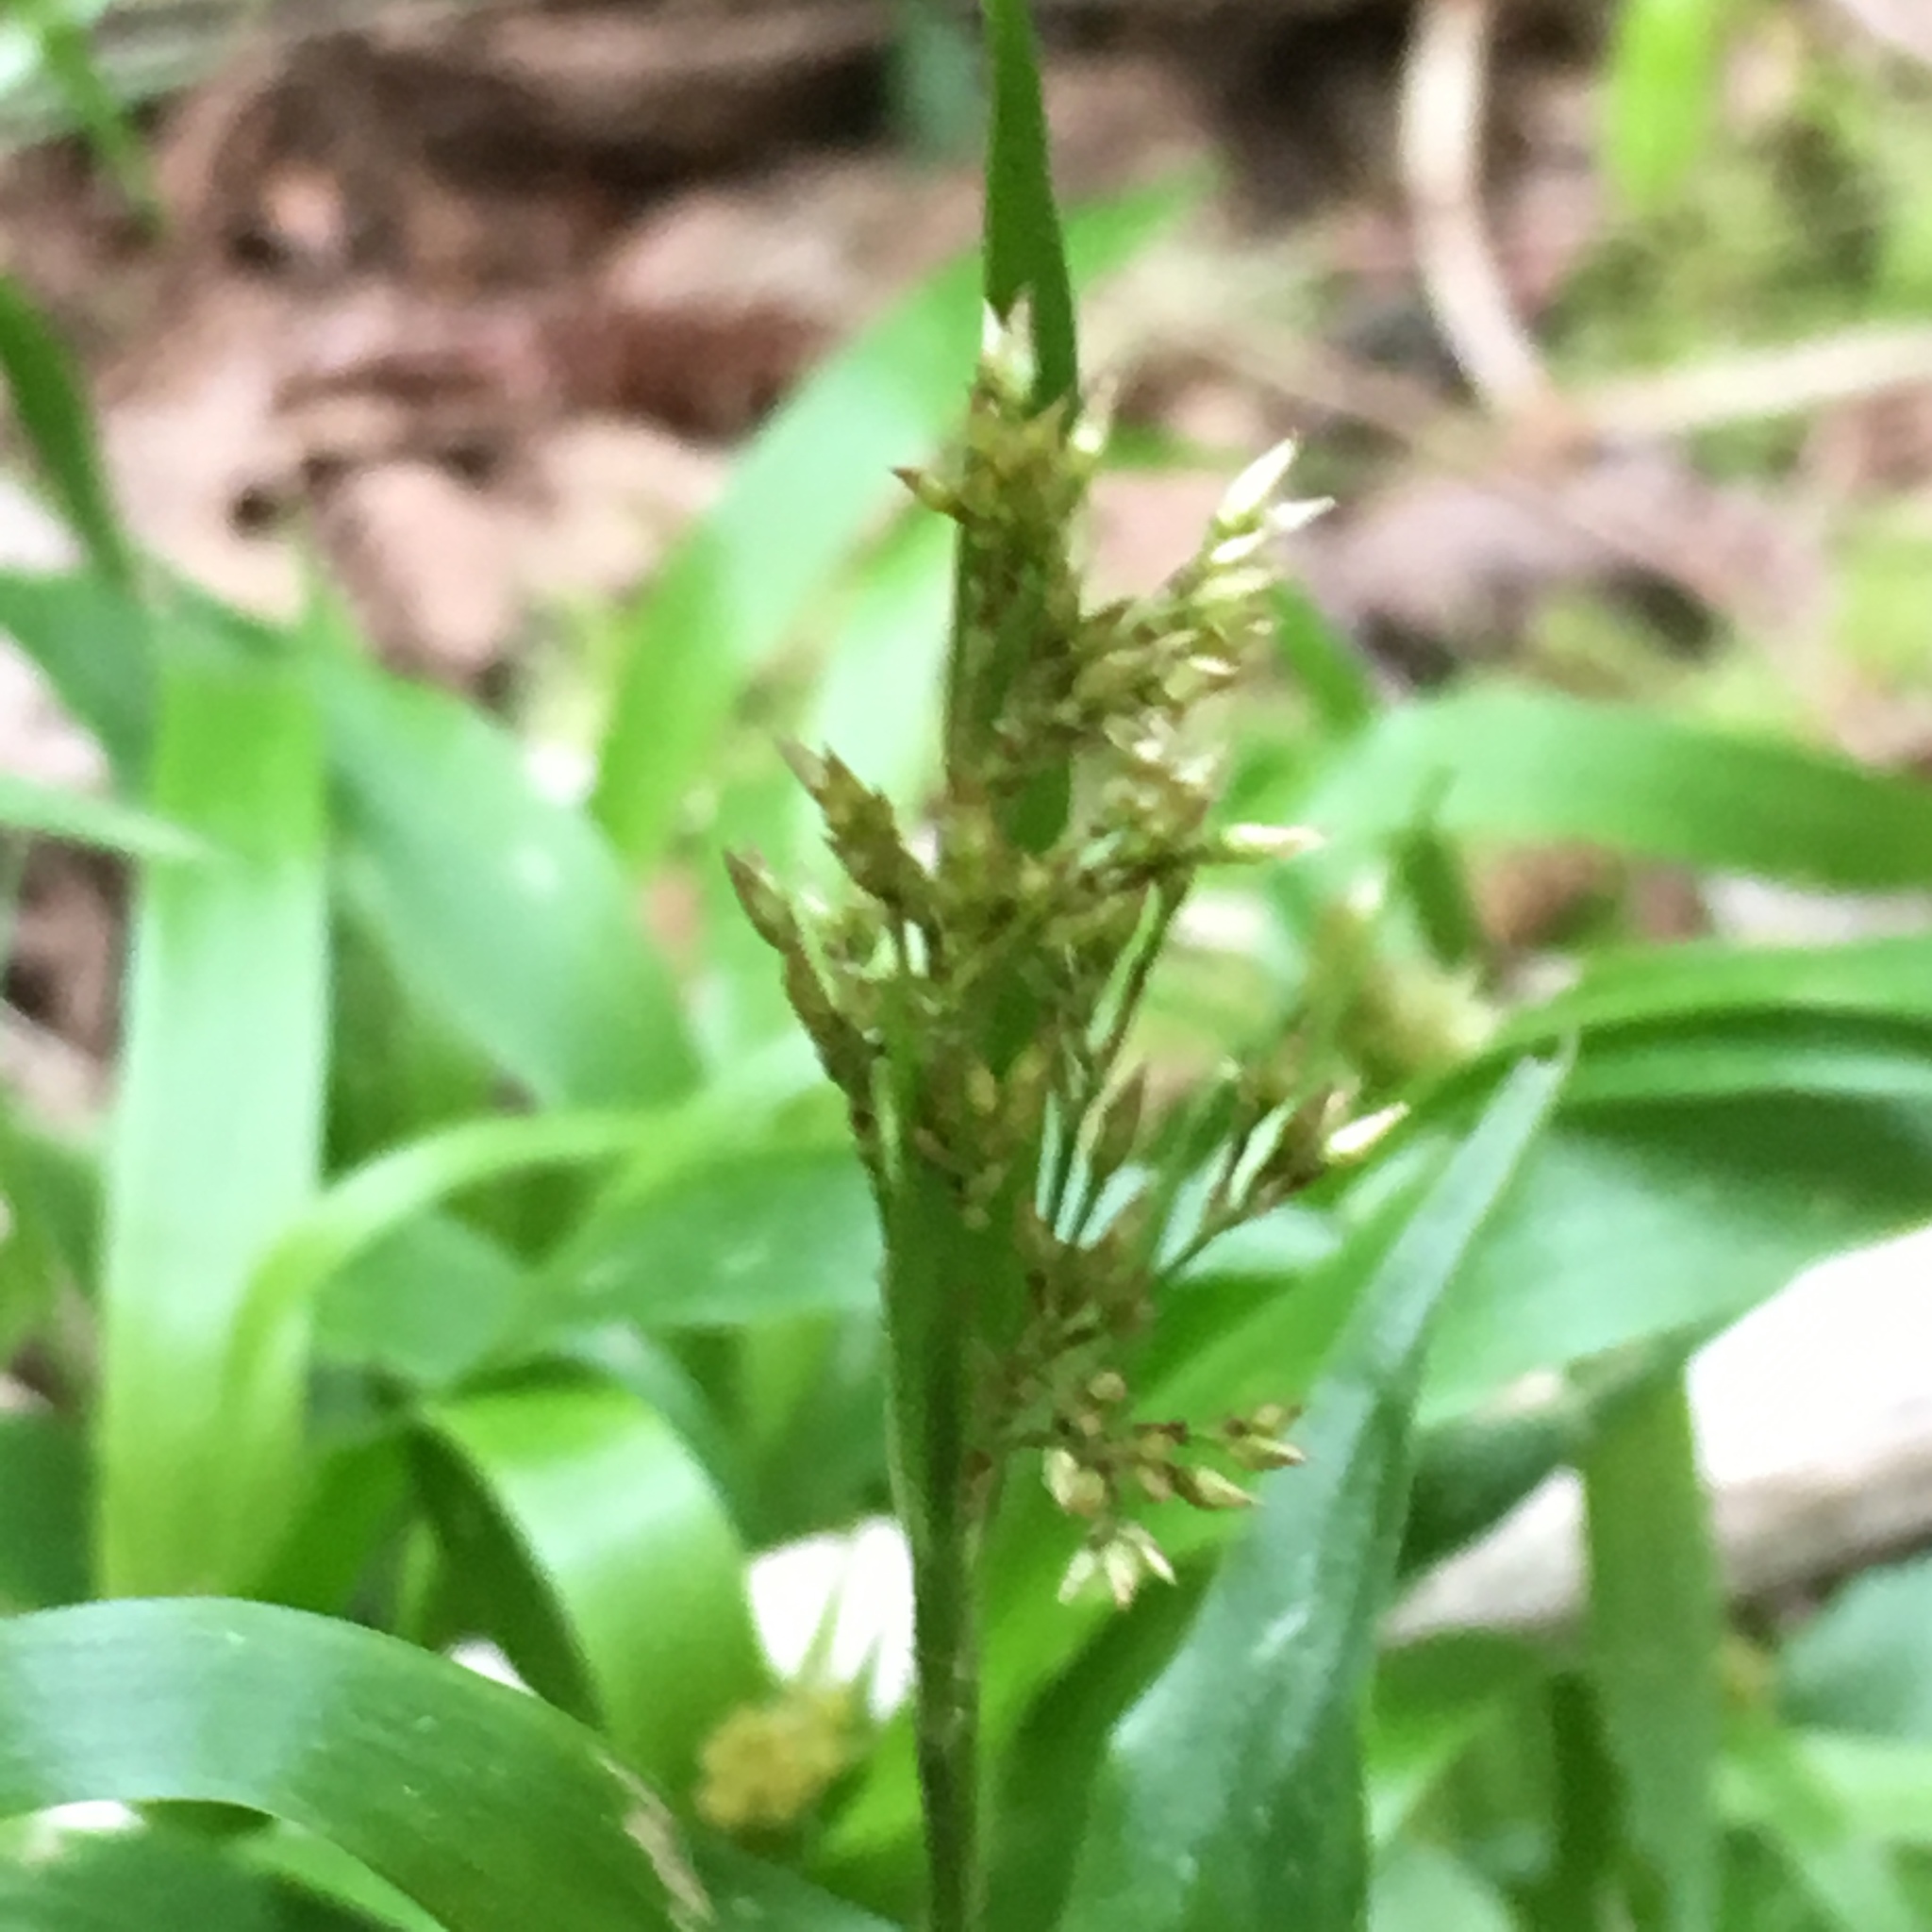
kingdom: Plantae
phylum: Tracheophyta
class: Liliopsida
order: Poales
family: Juncaceae
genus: Luzula
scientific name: Luzula parviflora
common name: Millet woodrush
